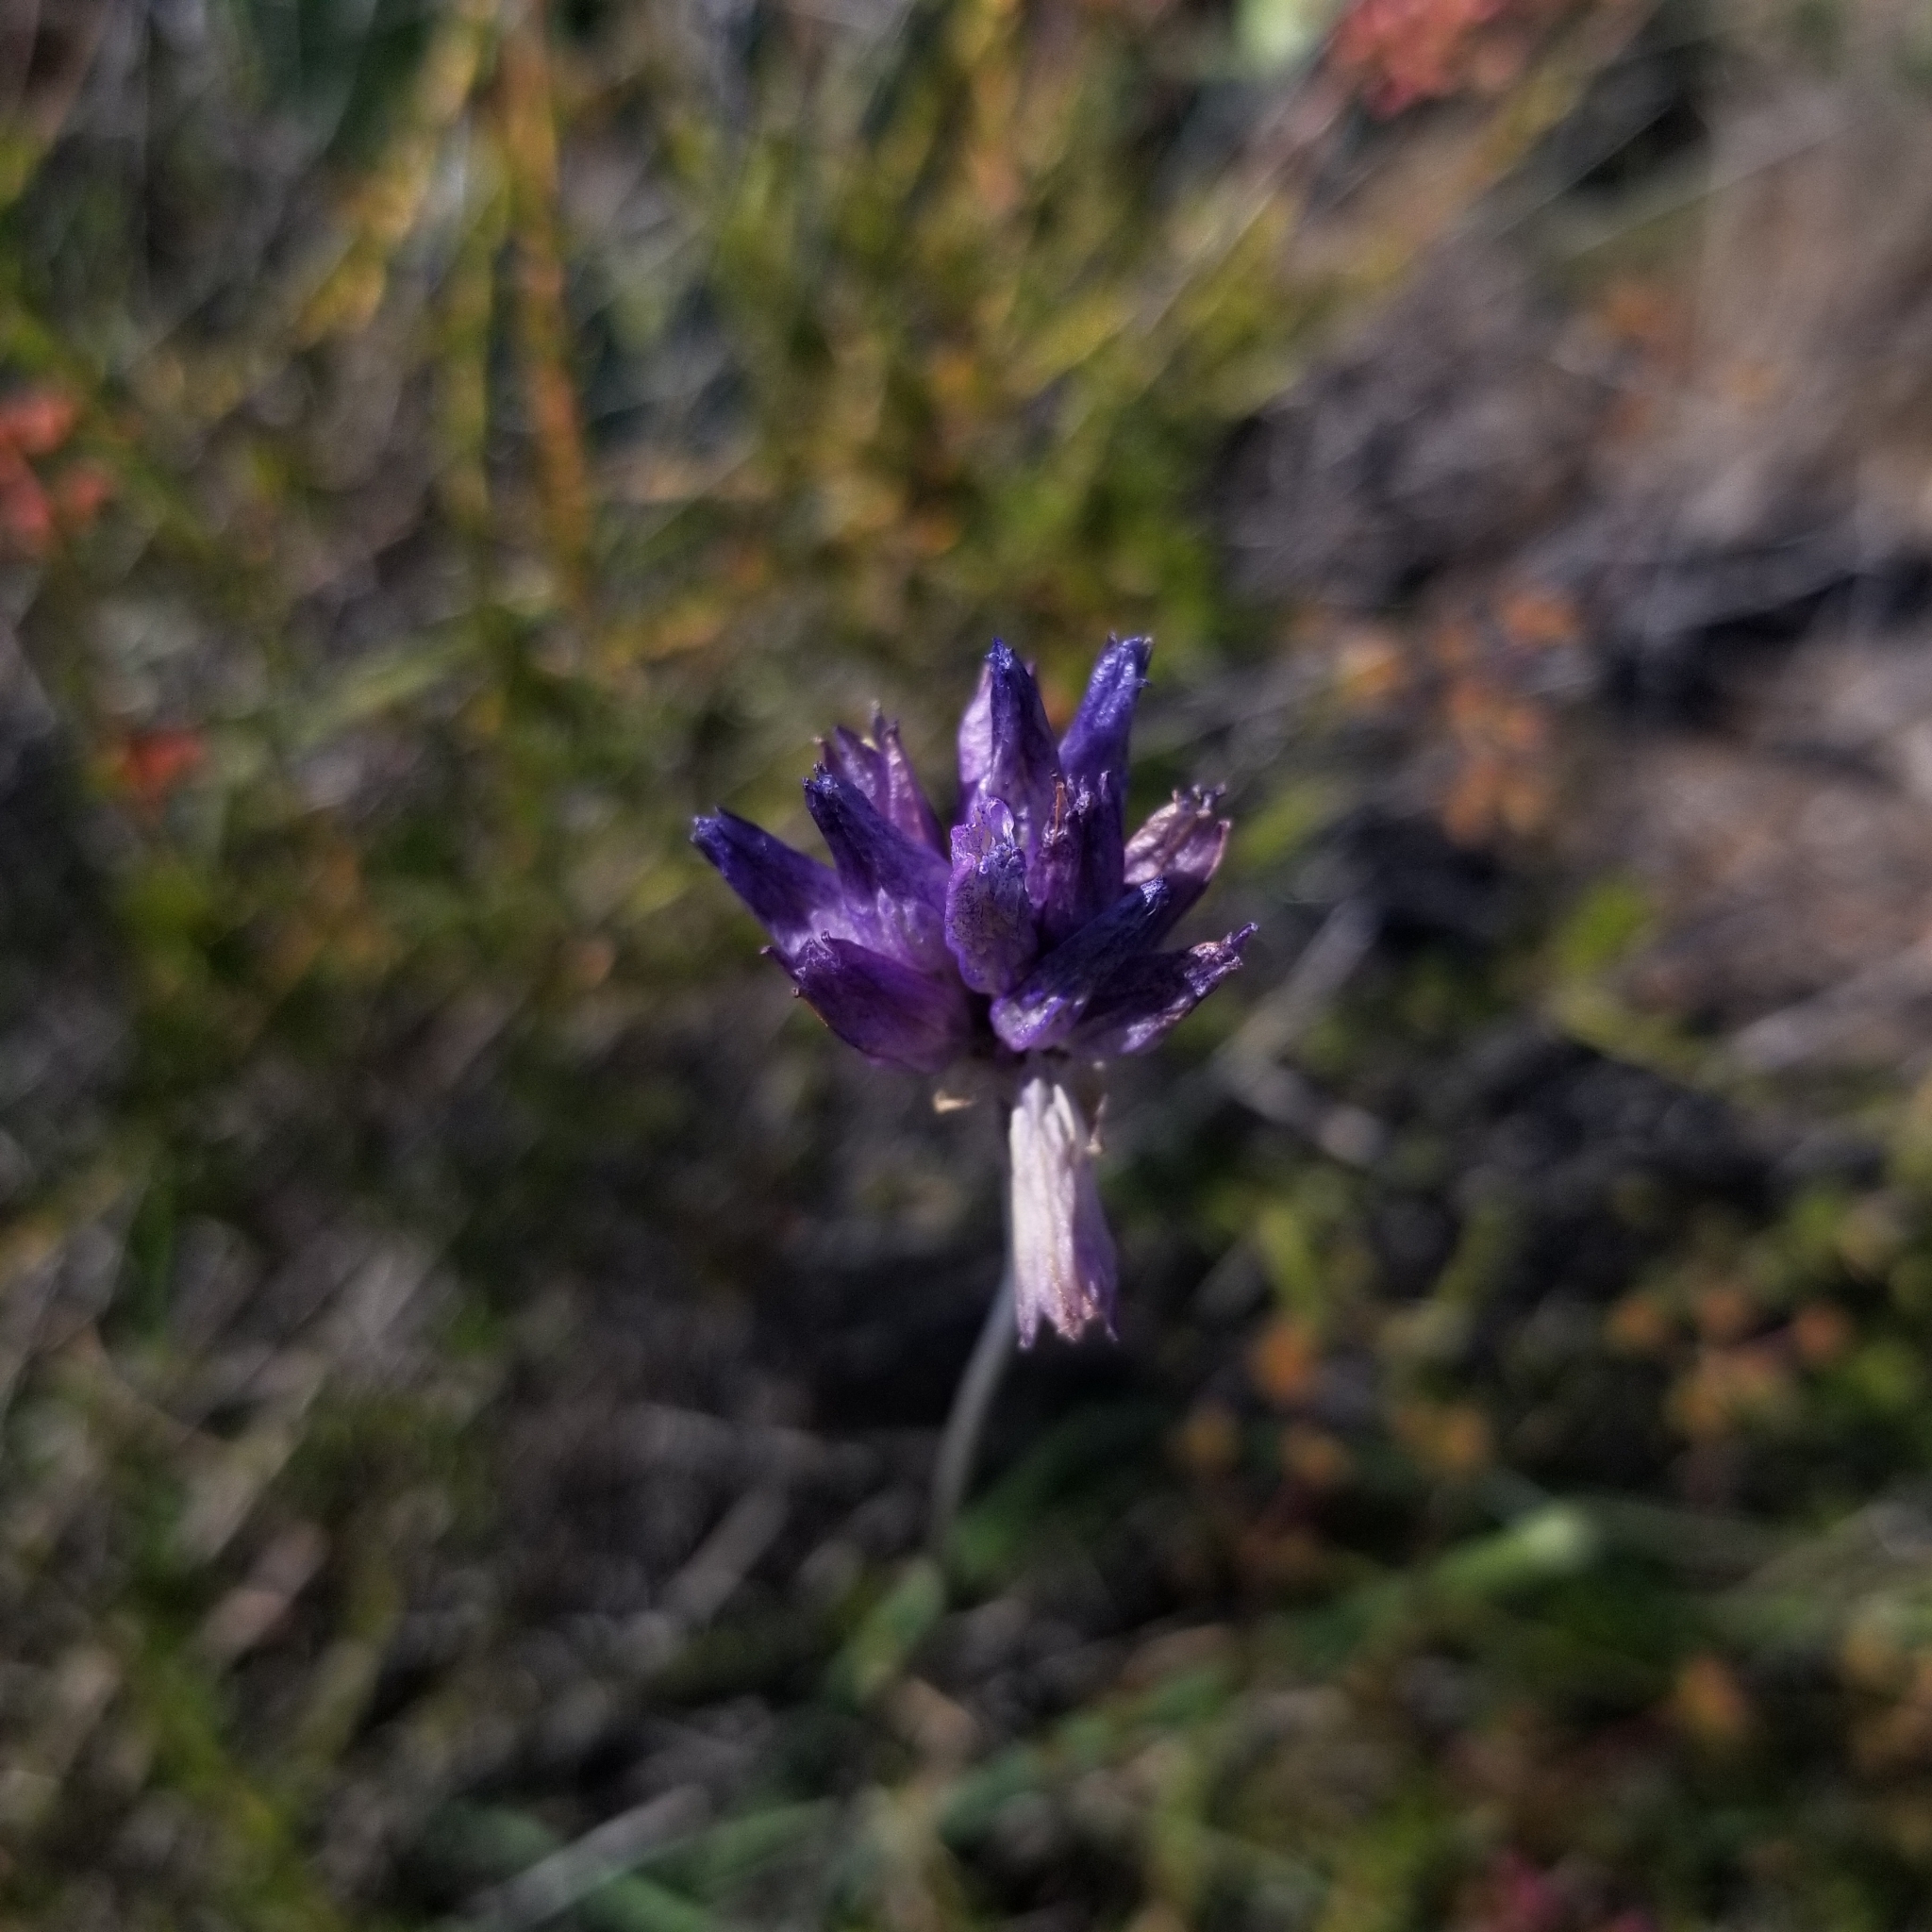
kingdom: Plantae
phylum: Tracheophyta
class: Liliopsida
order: Asparagales
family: Asparagaceae
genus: Dipterostemon
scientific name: Dipterostemon capitatus
